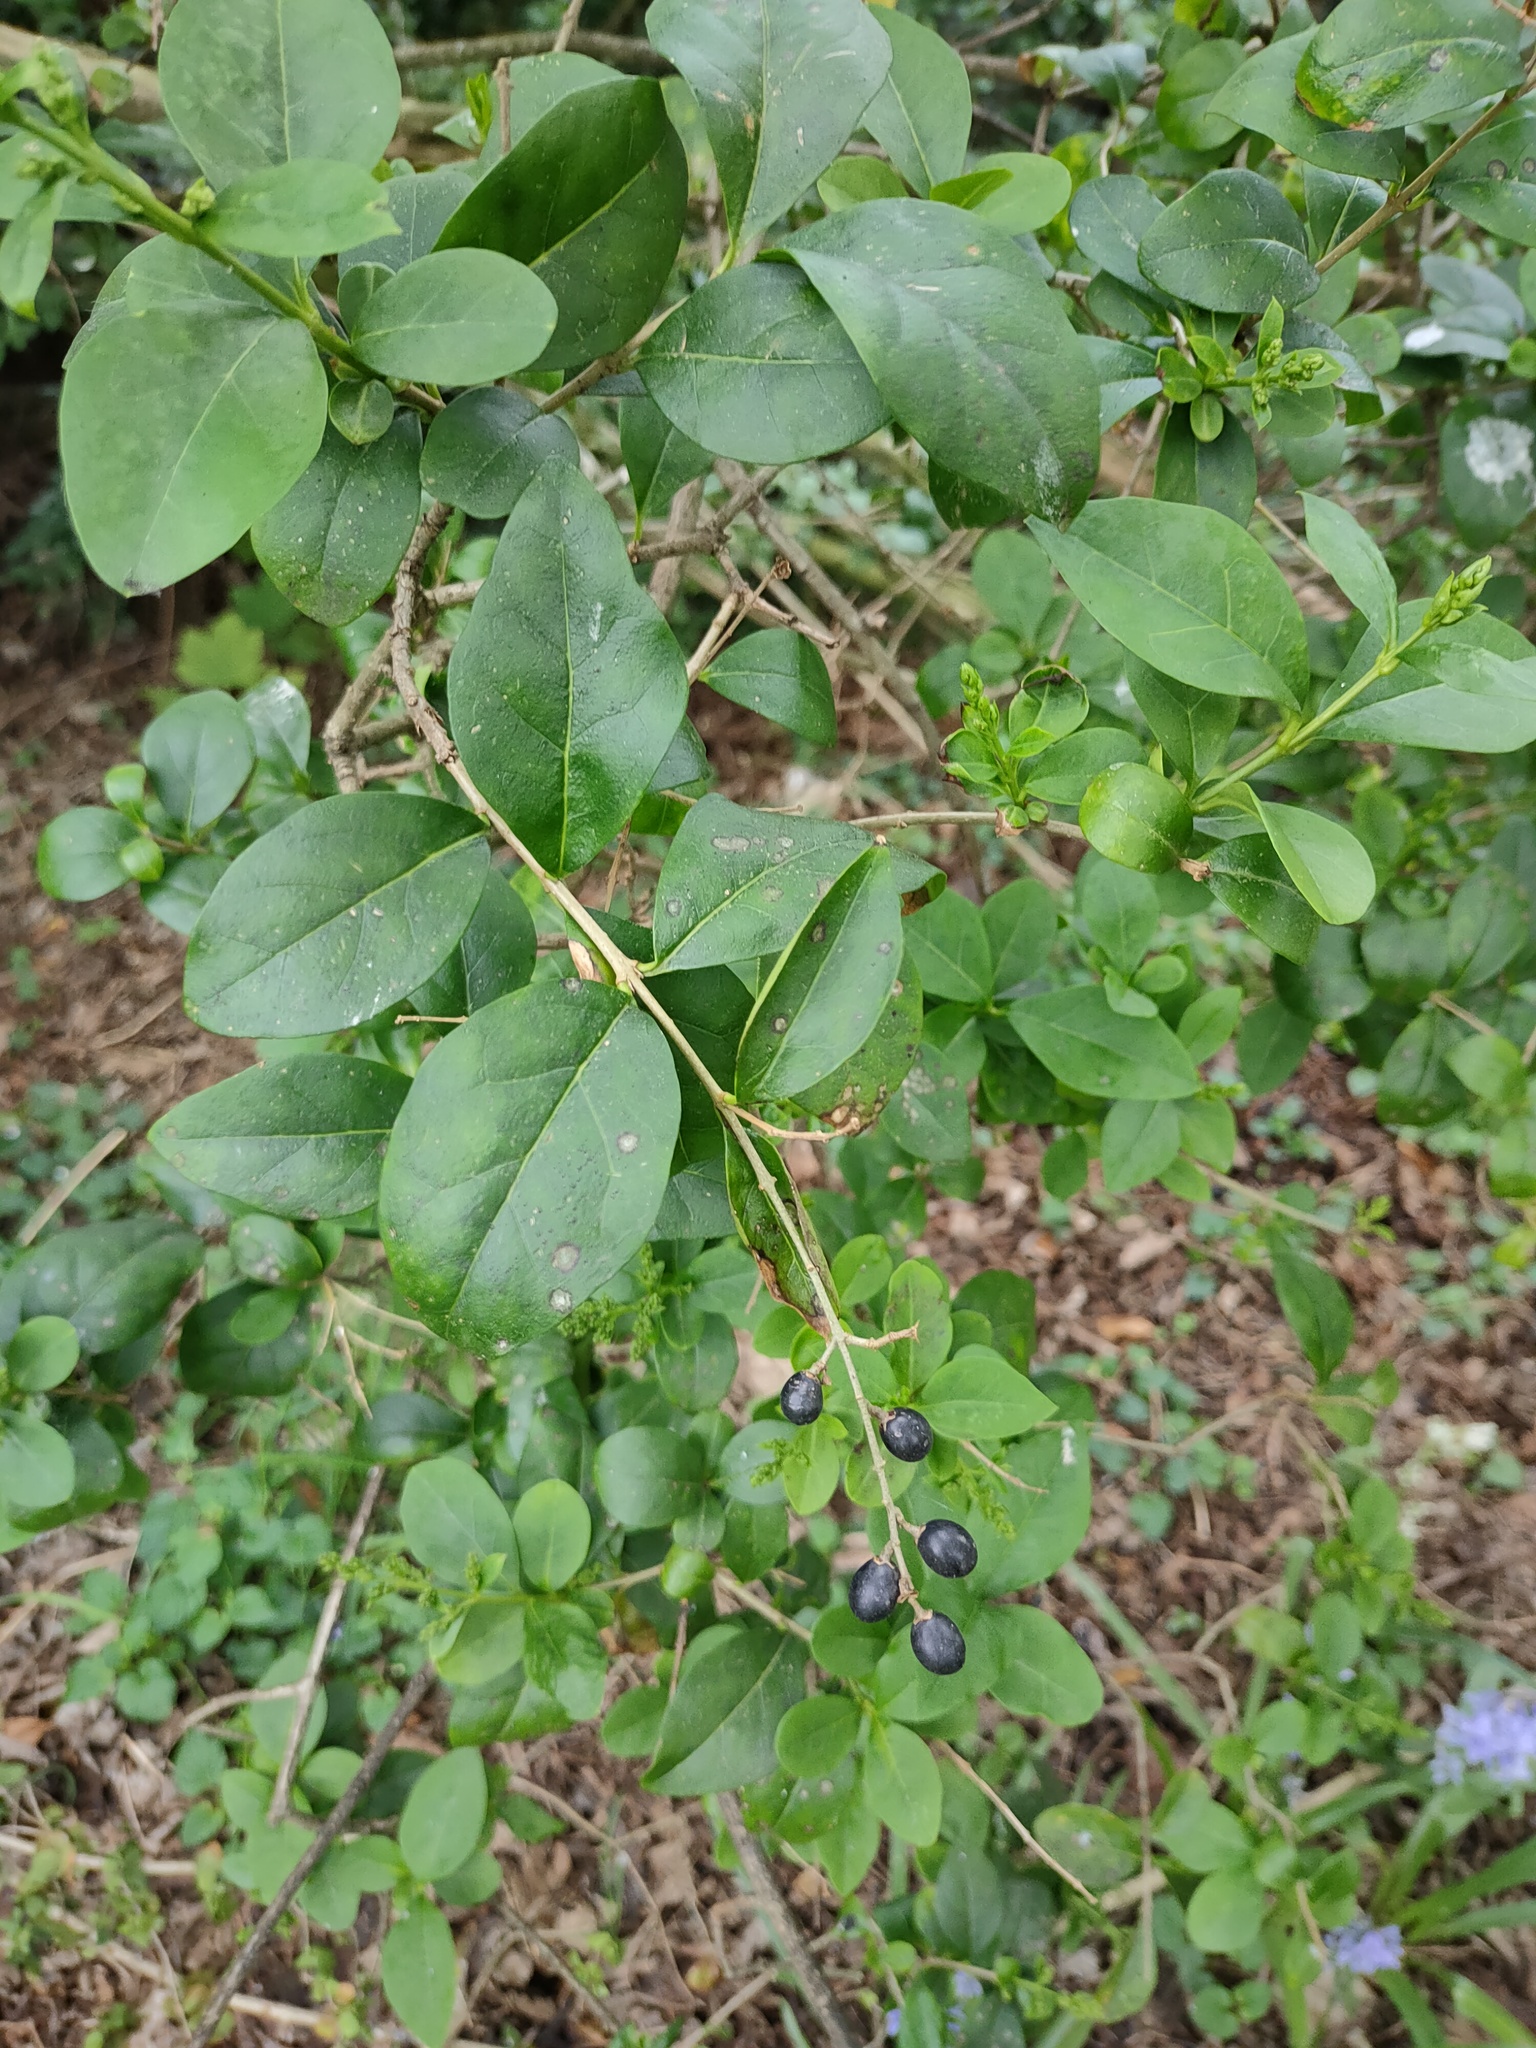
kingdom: Plantae
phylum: Tracheophyta
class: Magnoliopsida
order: Lamiales
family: Oleaceae
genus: Ligustrum
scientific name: Ligustrum ovalifolium
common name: California privet
